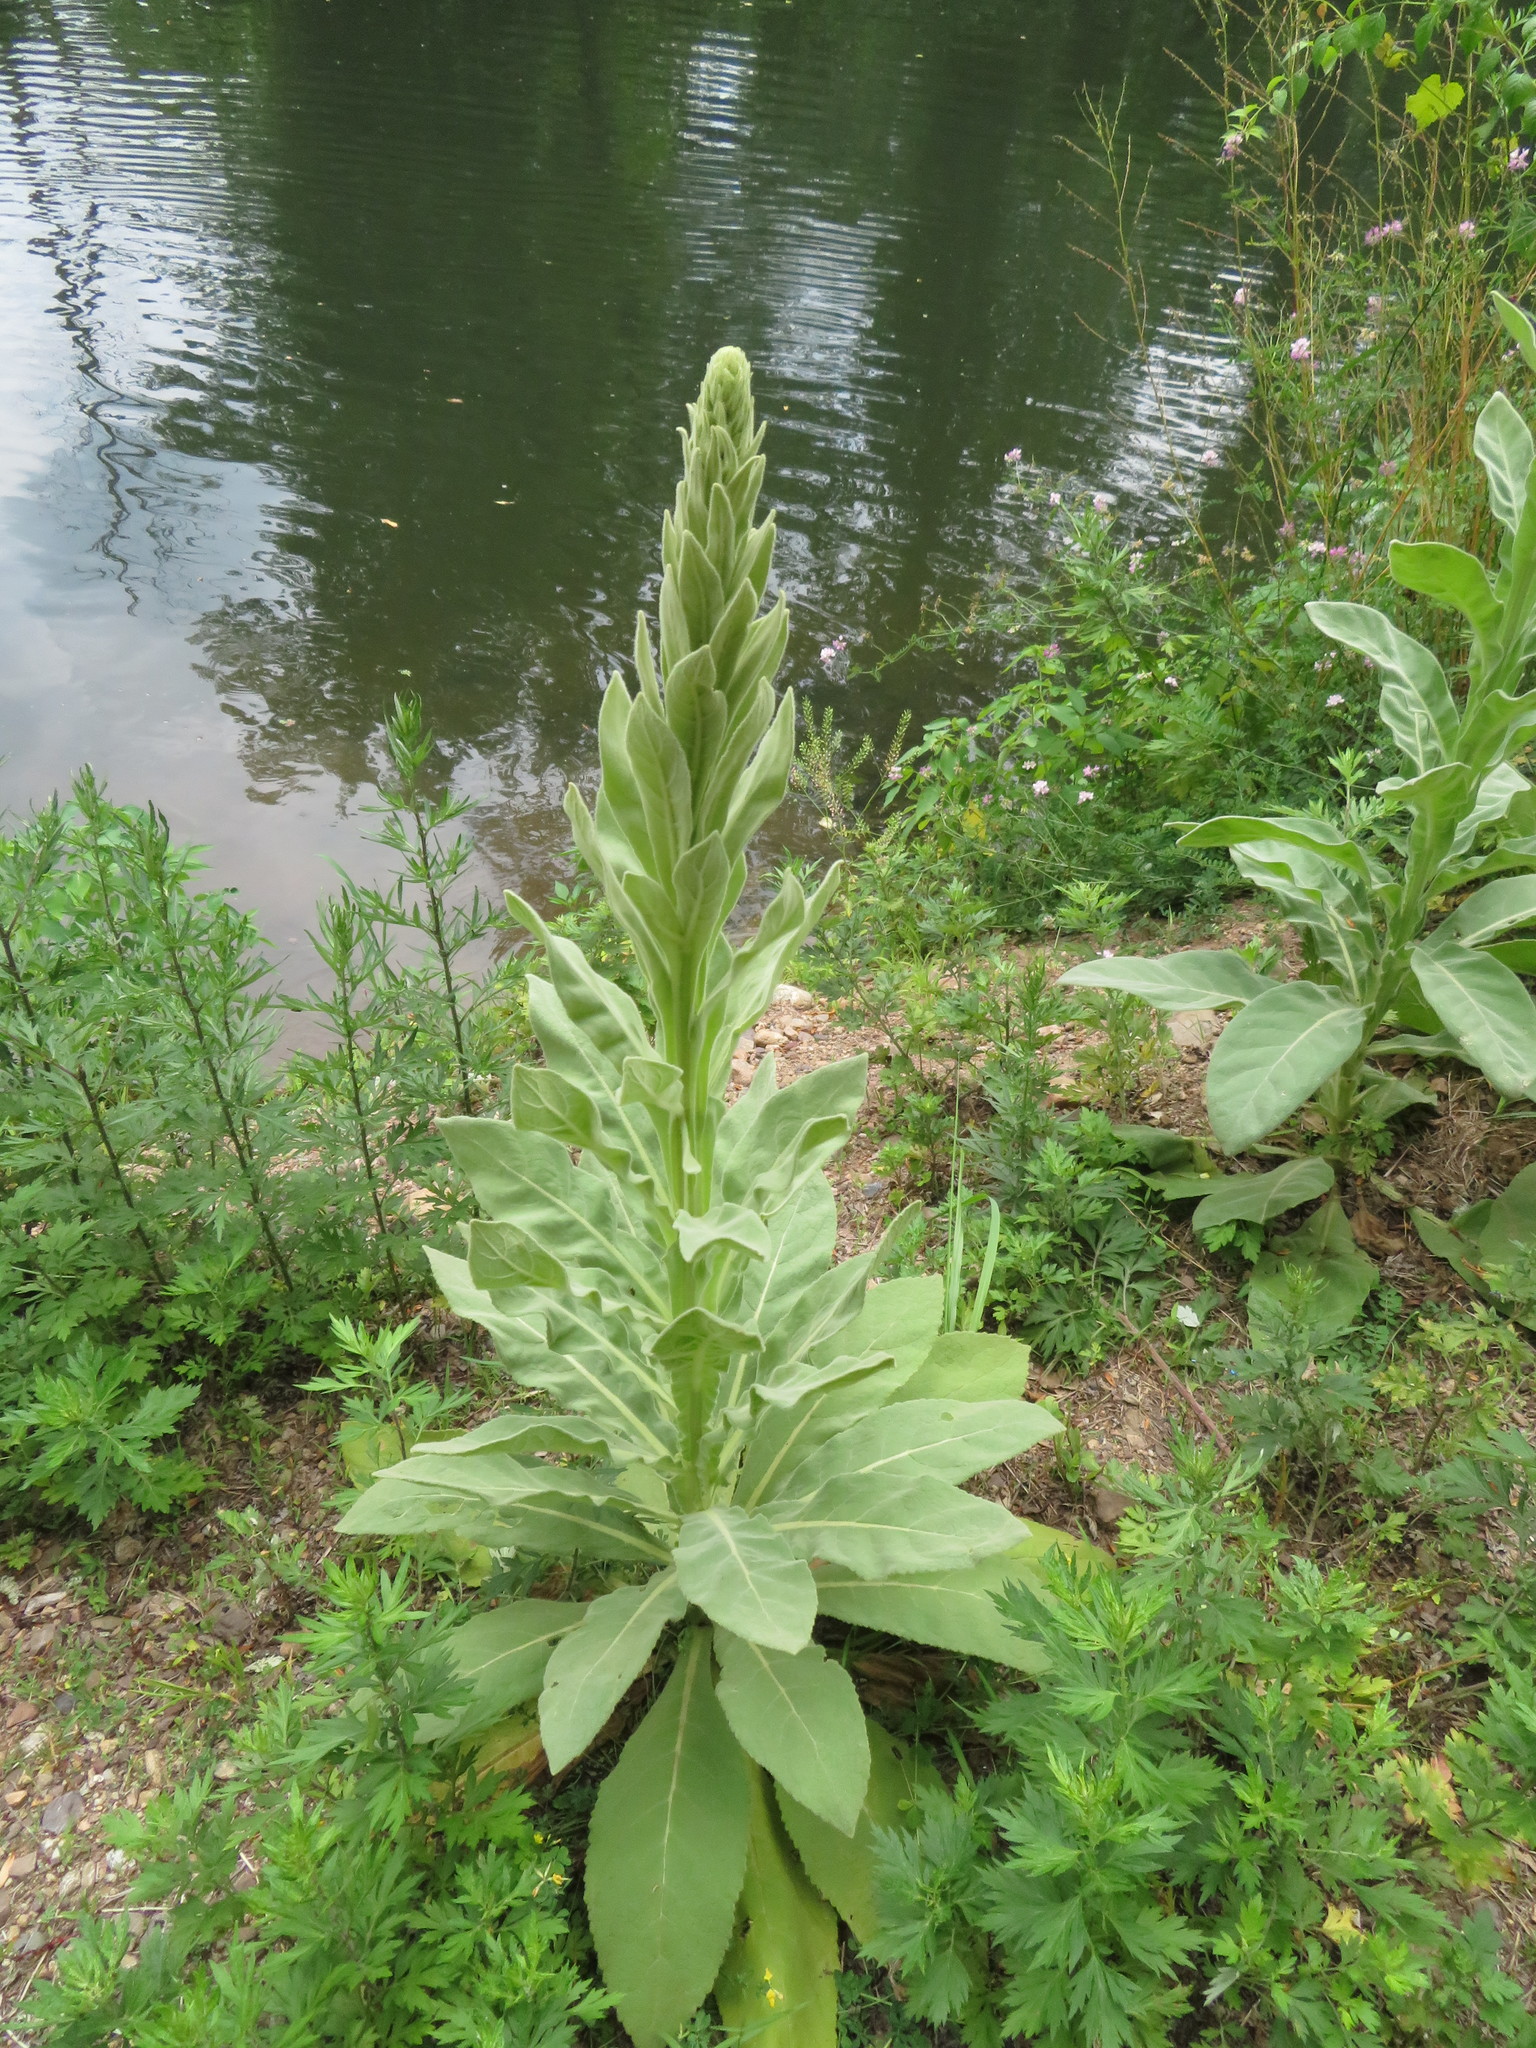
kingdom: Plantae
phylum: Tracheophyta
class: Magnoliopsida
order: Lamiales
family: Scrophulariaceae
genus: Verbascum
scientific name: Verbascum thapsus
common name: Common mullein
